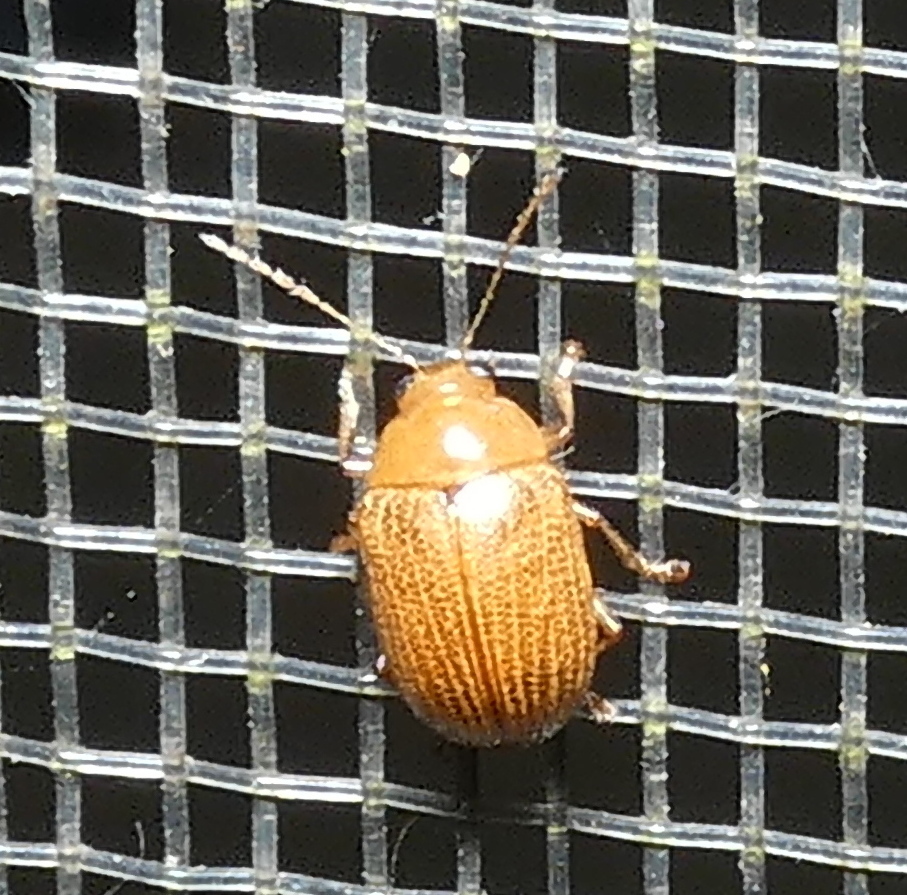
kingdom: Animalia
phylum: Arthropoda
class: Insecta
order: Coleoptera
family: Chrysomelidae
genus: Anisodera
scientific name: Anisodera ferruginea
